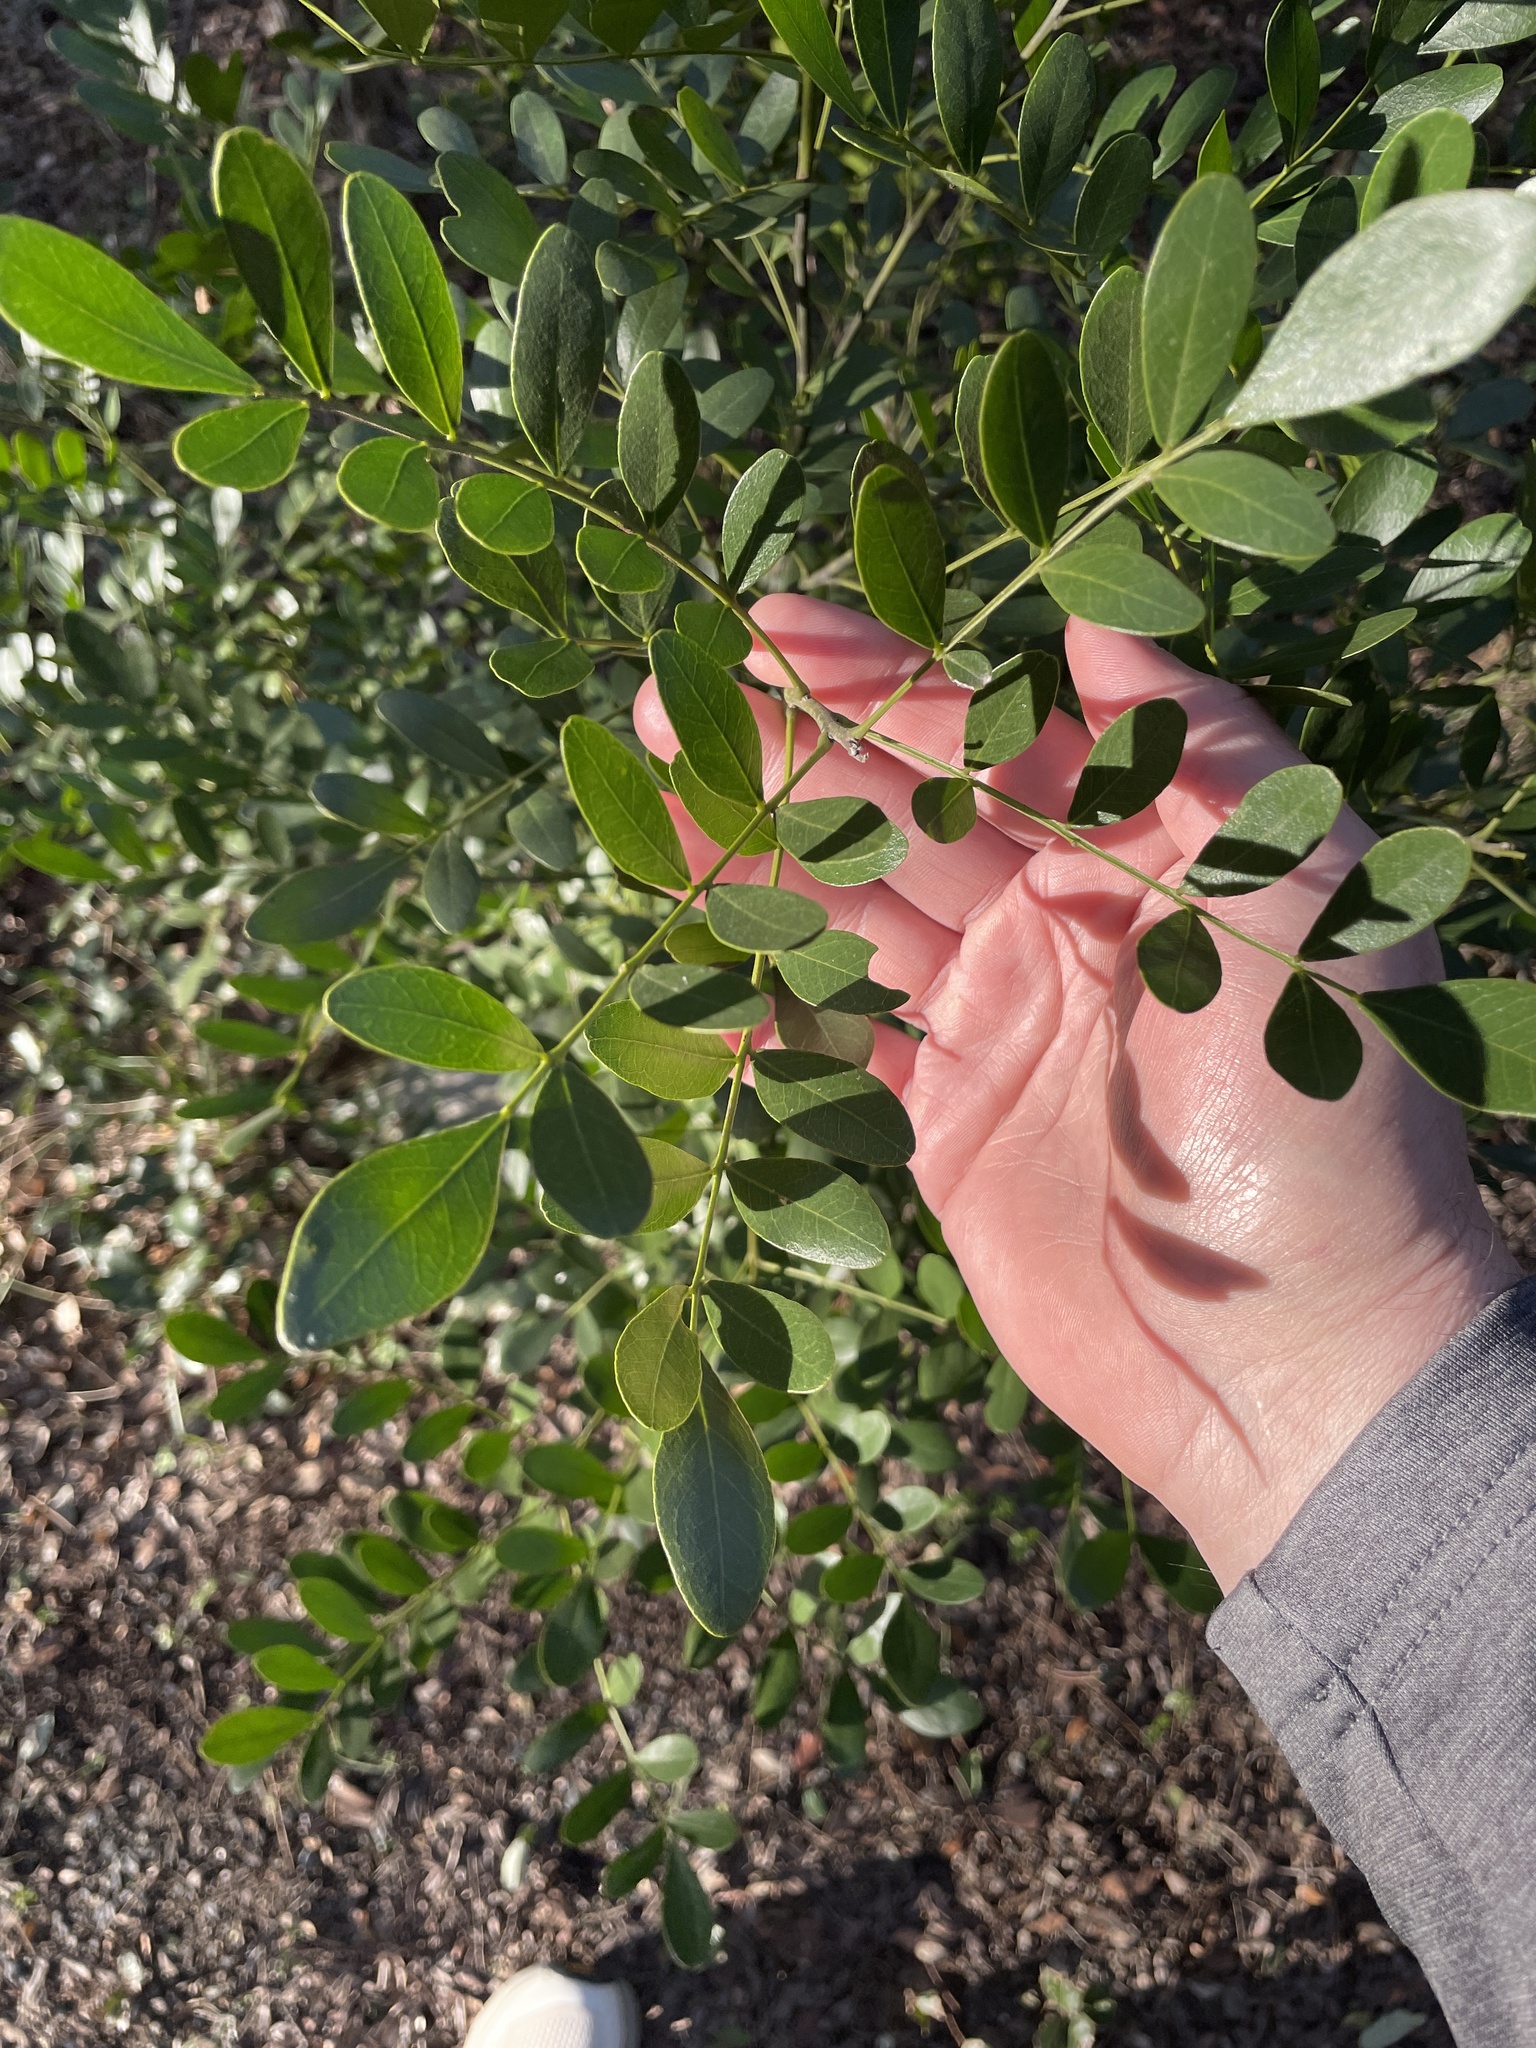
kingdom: Plantae
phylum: Tracheophyta
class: Magnoliopsida
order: Fabales
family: Fabaceae
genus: Dermatophyllum
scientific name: Dermatophyllum secundiflorum
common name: Texas-mountain-laurel
